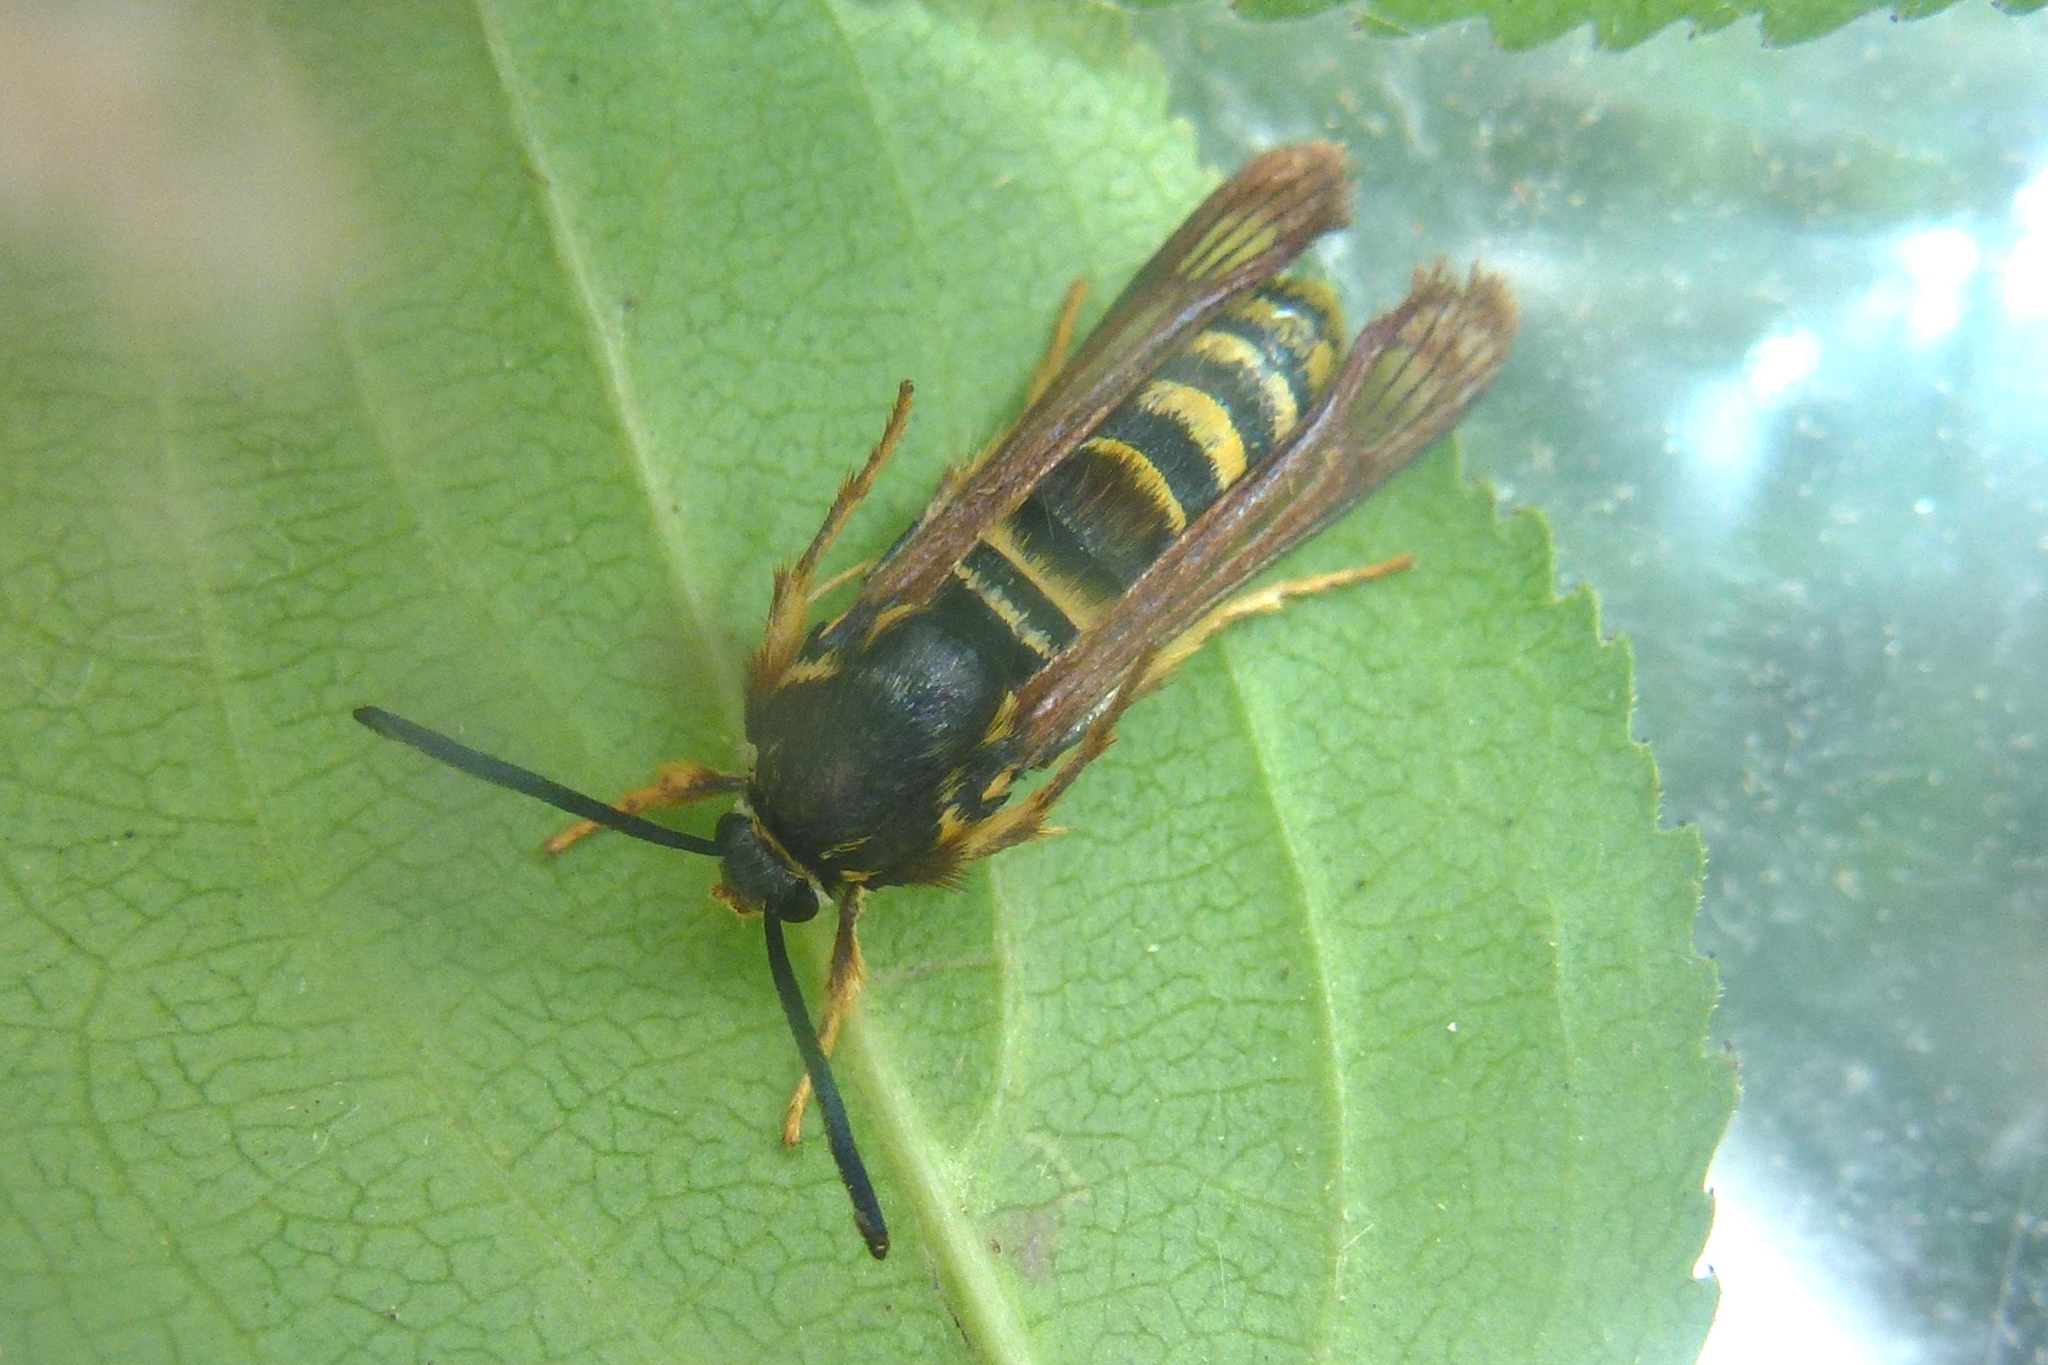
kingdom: Animalia
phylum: Arthropoda
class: Insecta
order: Lepidoptera
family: Sesiidae
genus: Pennisetia
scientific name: Pennisetia marginatum
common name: Raspberry crown borer
